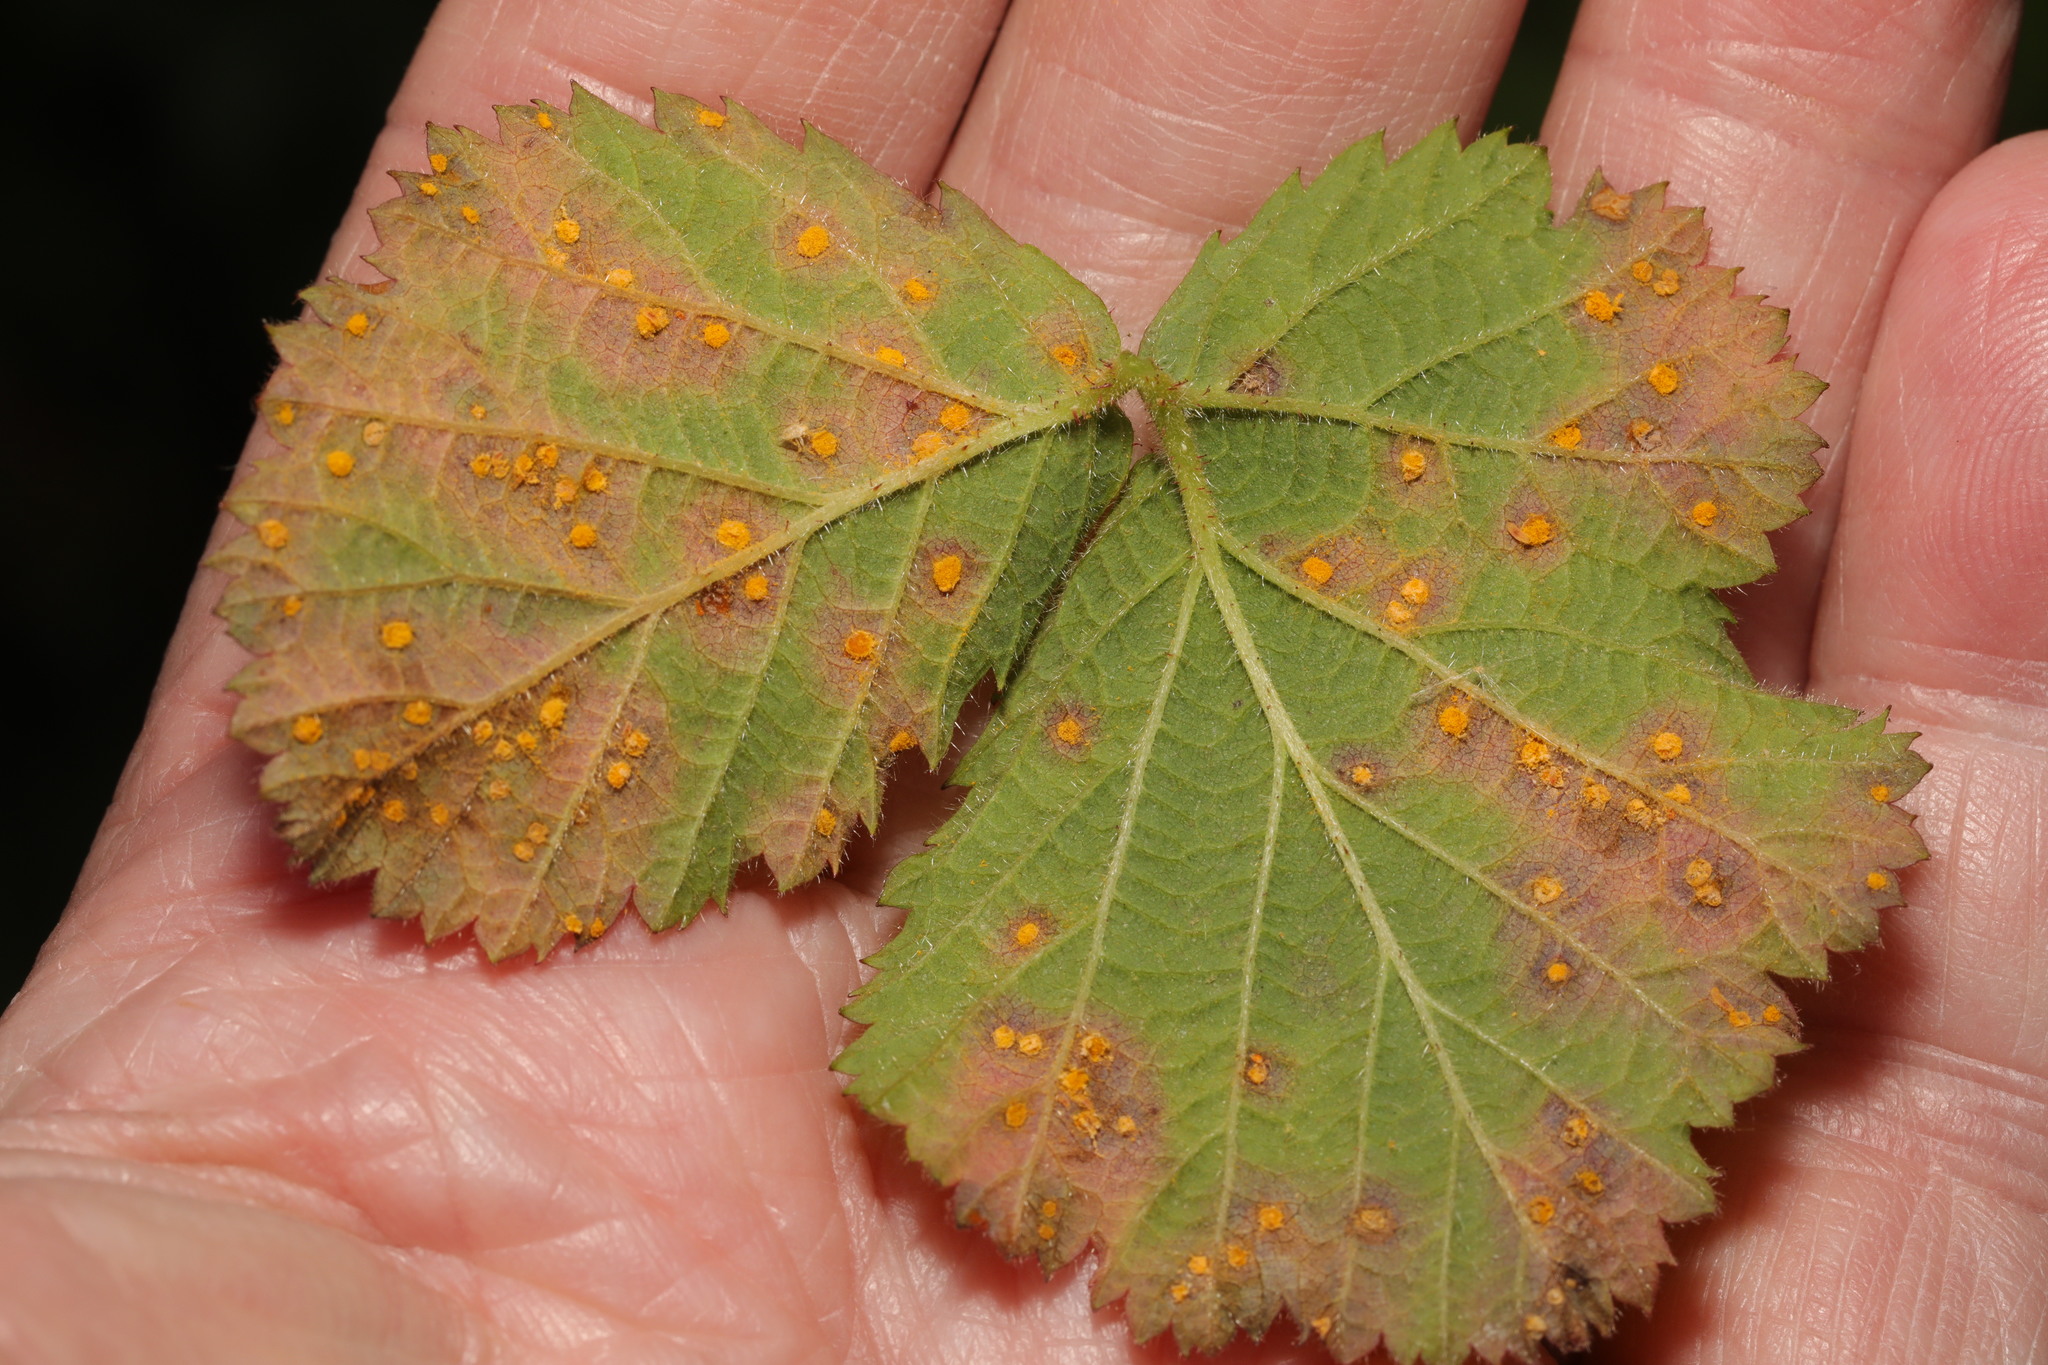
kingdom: Fungi
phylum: Basidiomycota
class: Pucciniomycetes
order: Pucciniales
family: Phragmidiaceae
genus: Phragmidium
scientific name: Phragmidium violaceum
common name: Violet bramble rust
